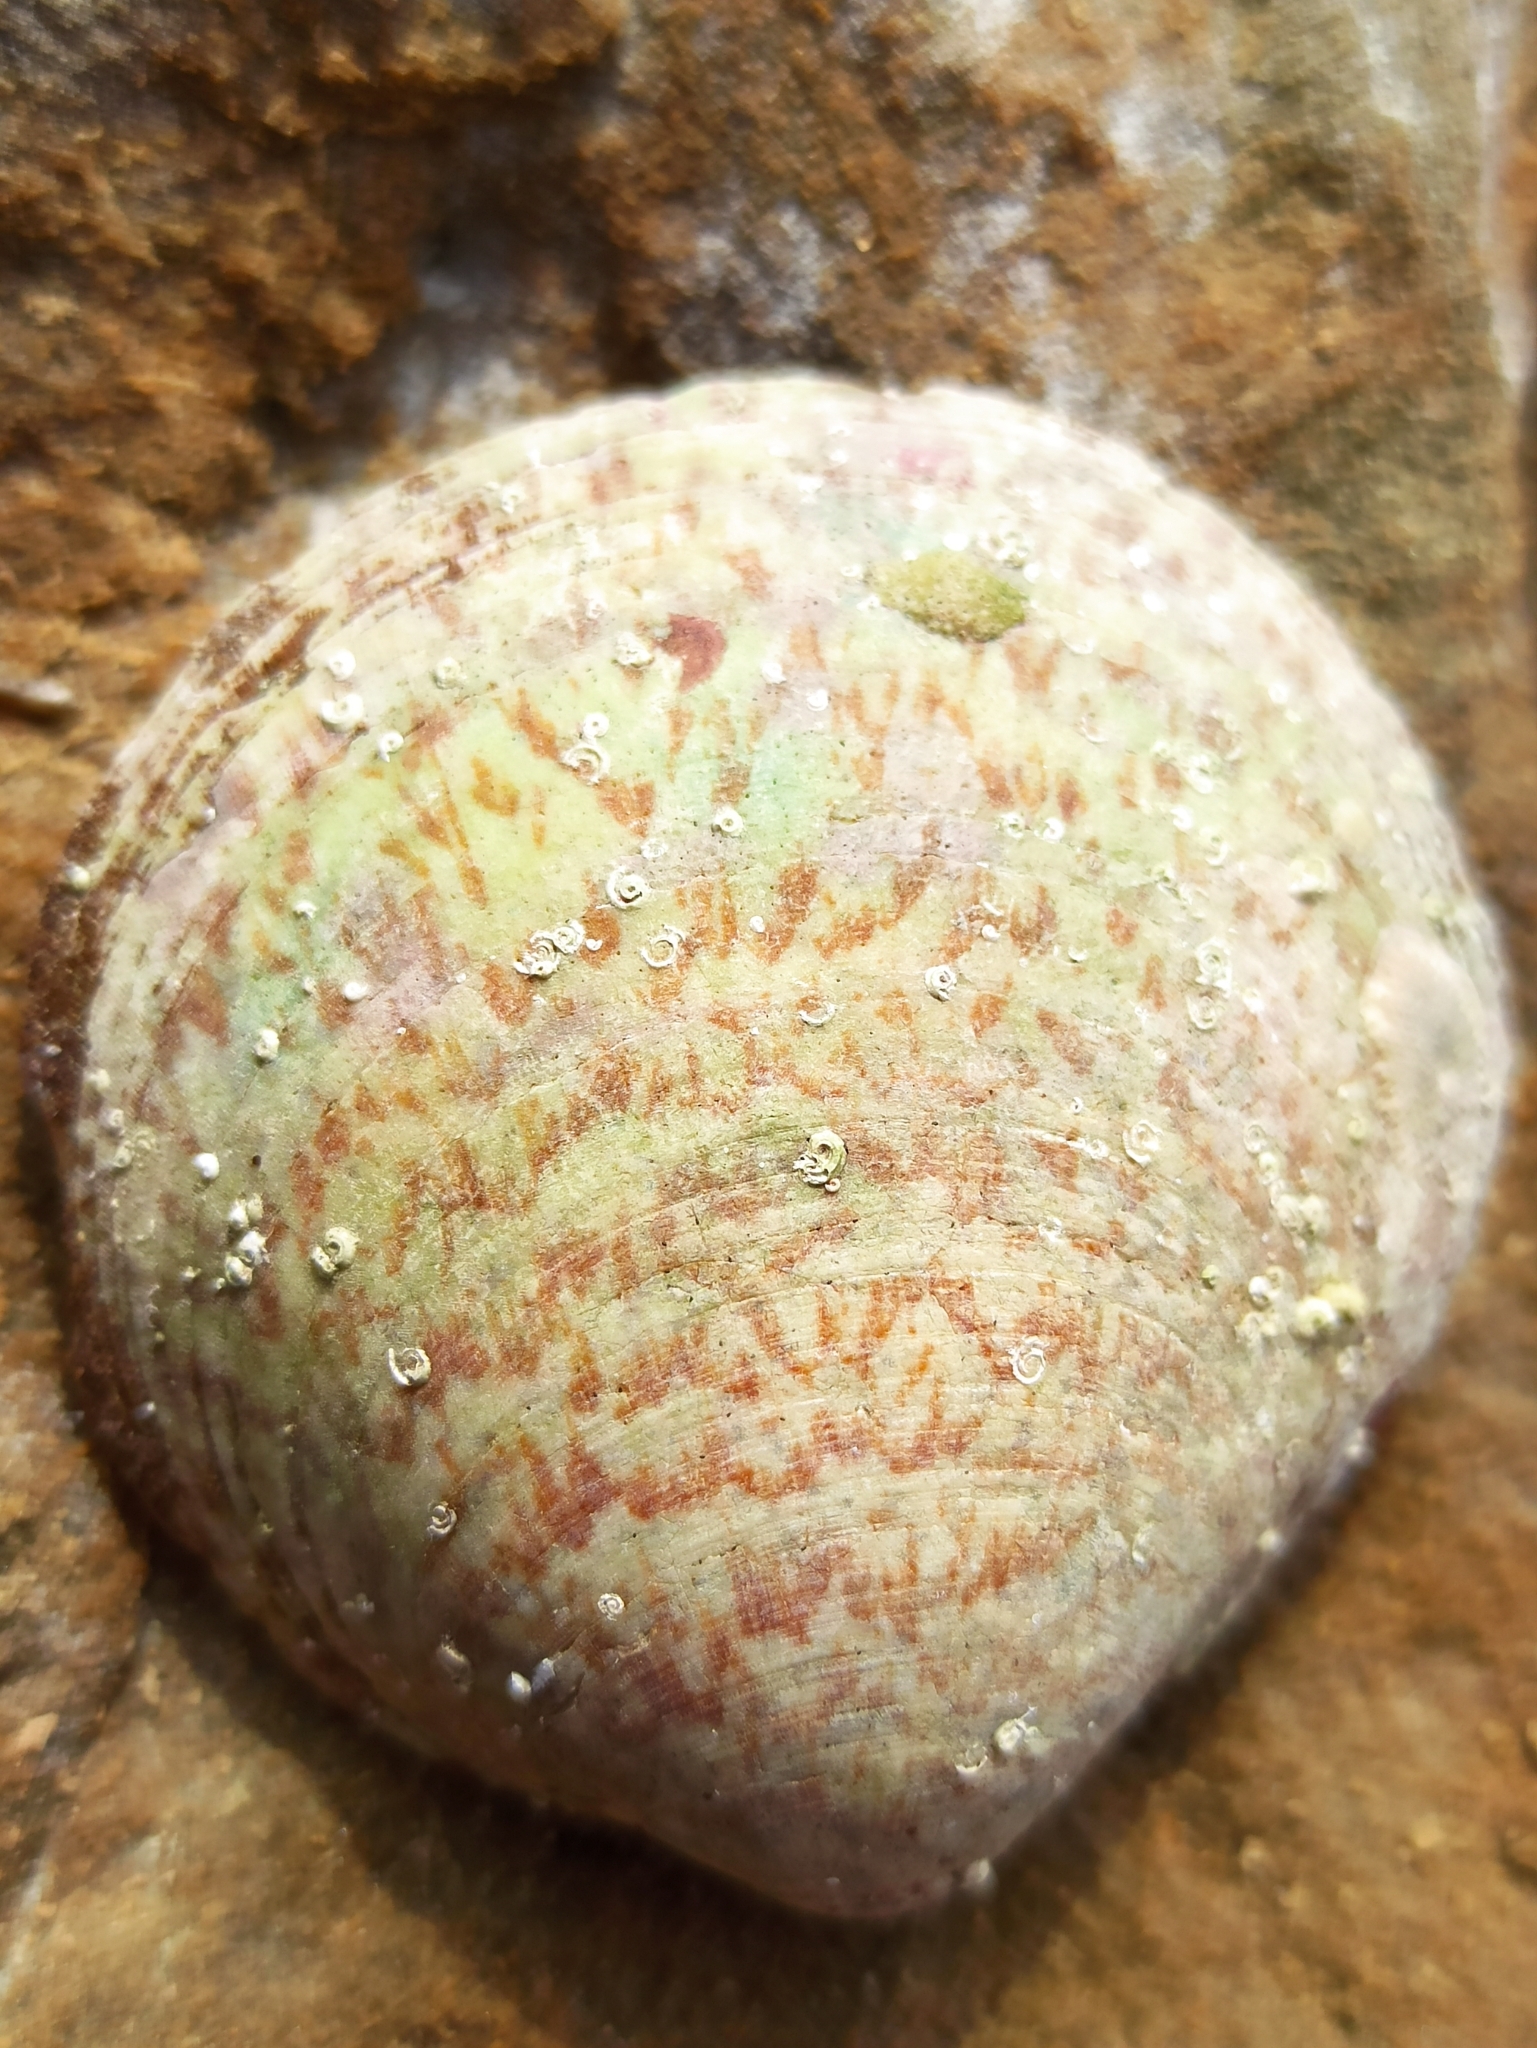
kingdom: Animalia
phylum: Mollusca
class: Bivalvia
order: Arcida
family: Glycymerididae
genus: Glycymeris
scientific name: Glycymeris glycymeris
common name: Dog-cockle
